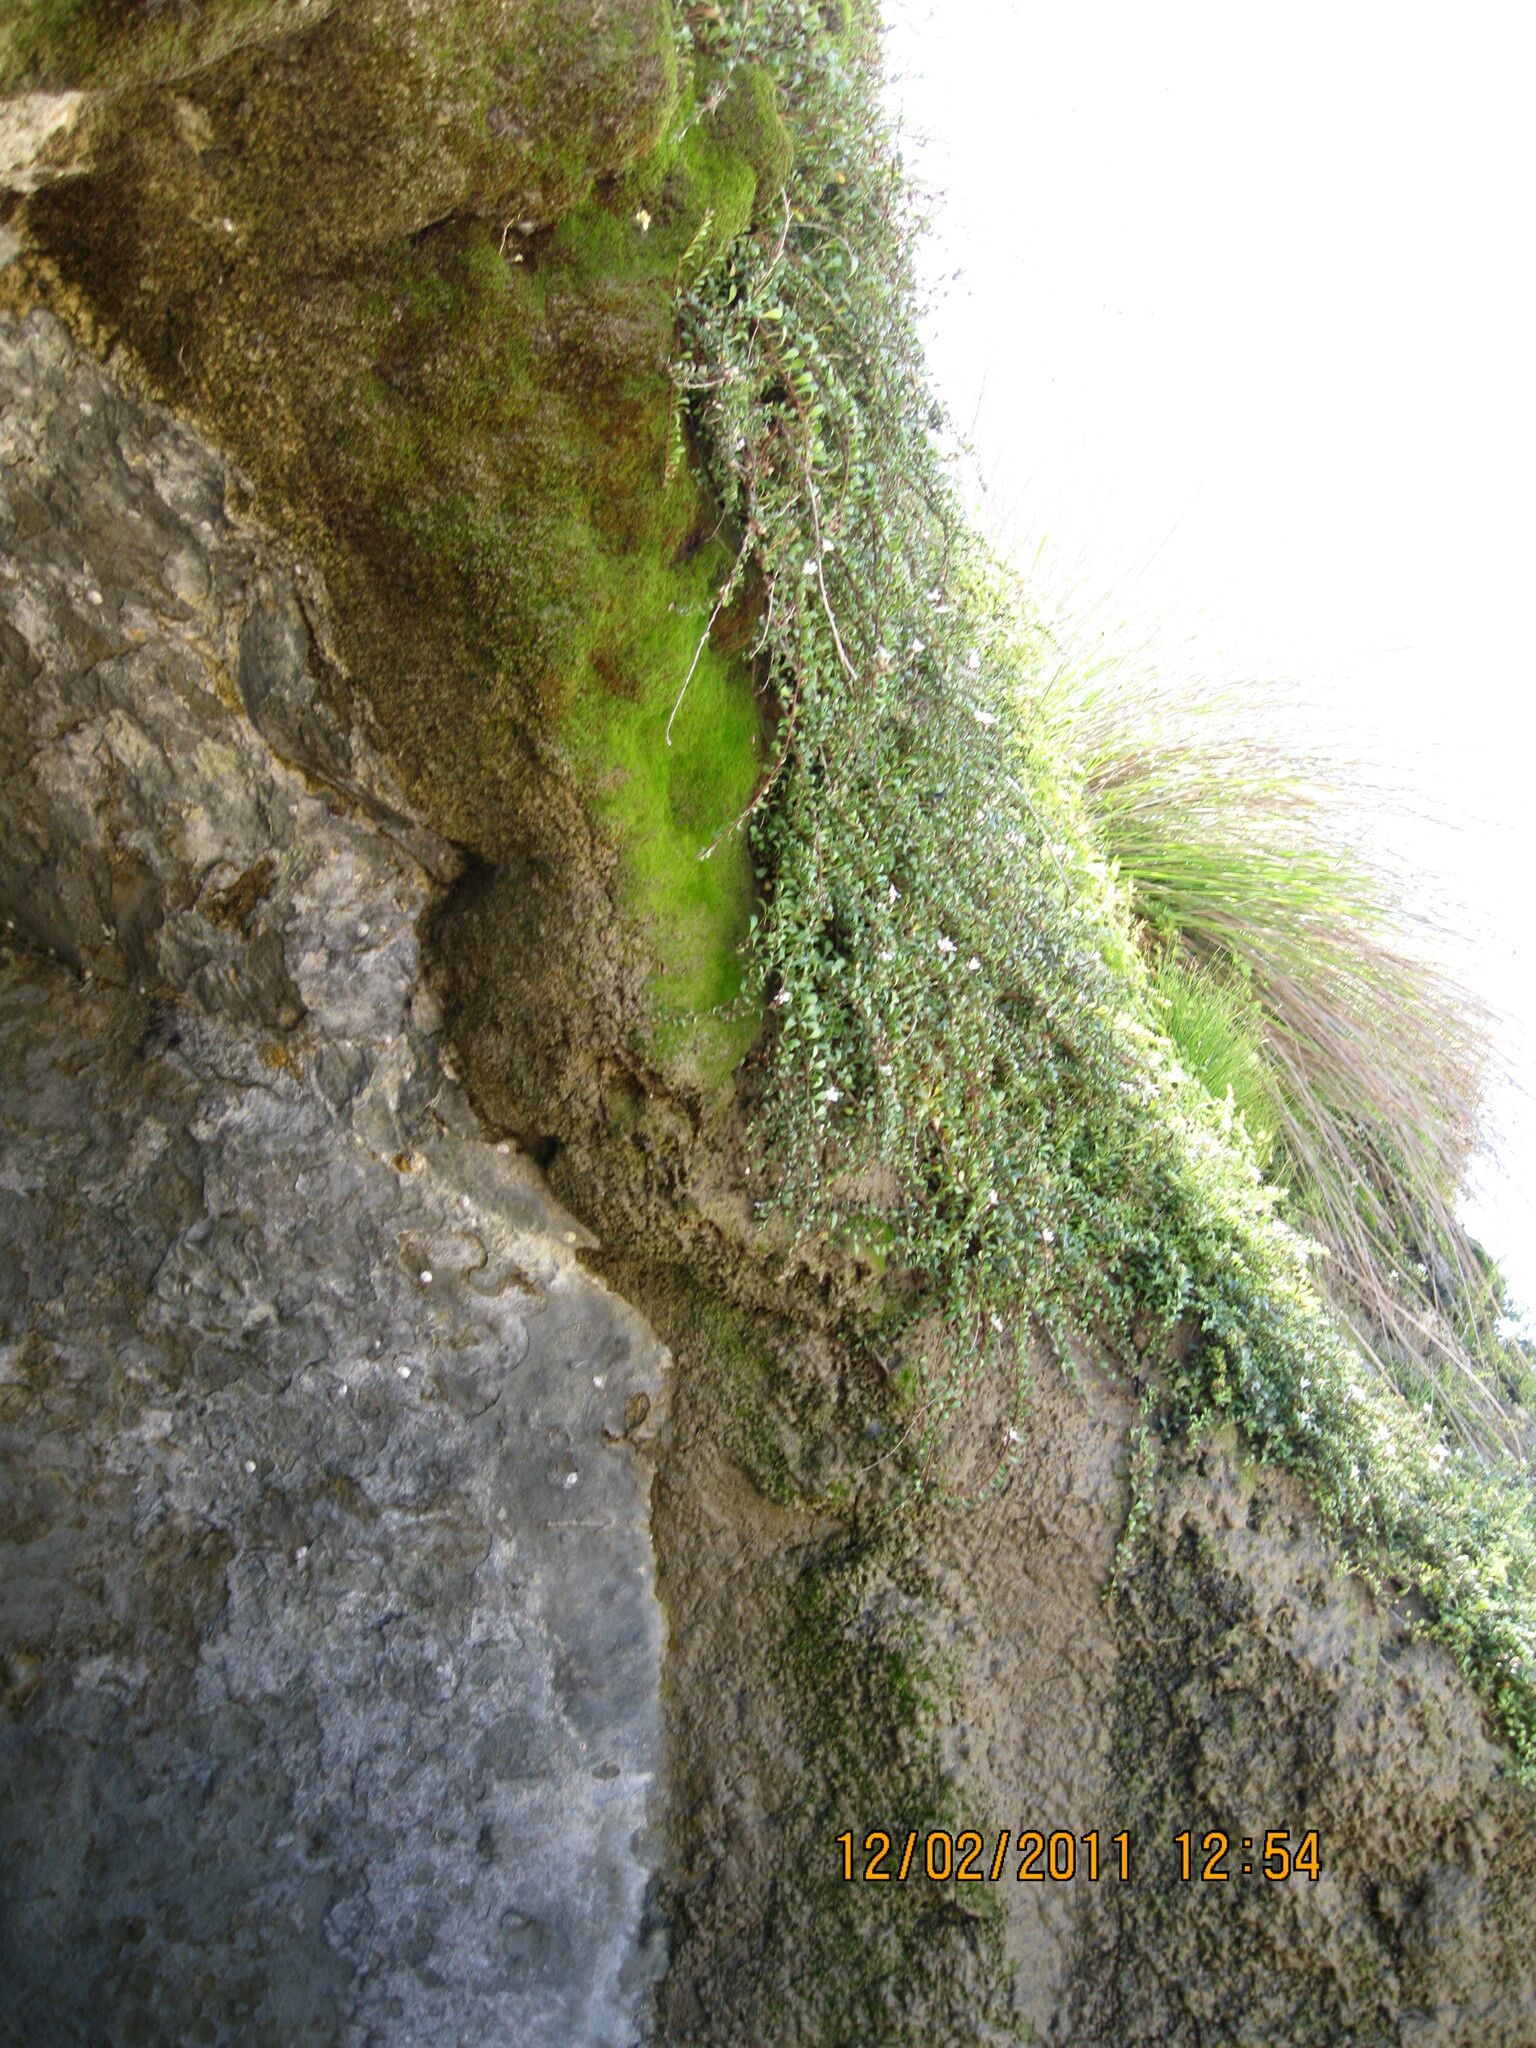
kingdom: Plantae
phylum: Tracheophyta
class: Magnoliopsida
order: Ericales
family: Primulaceae
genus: Samolus
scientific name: Samolus repens
